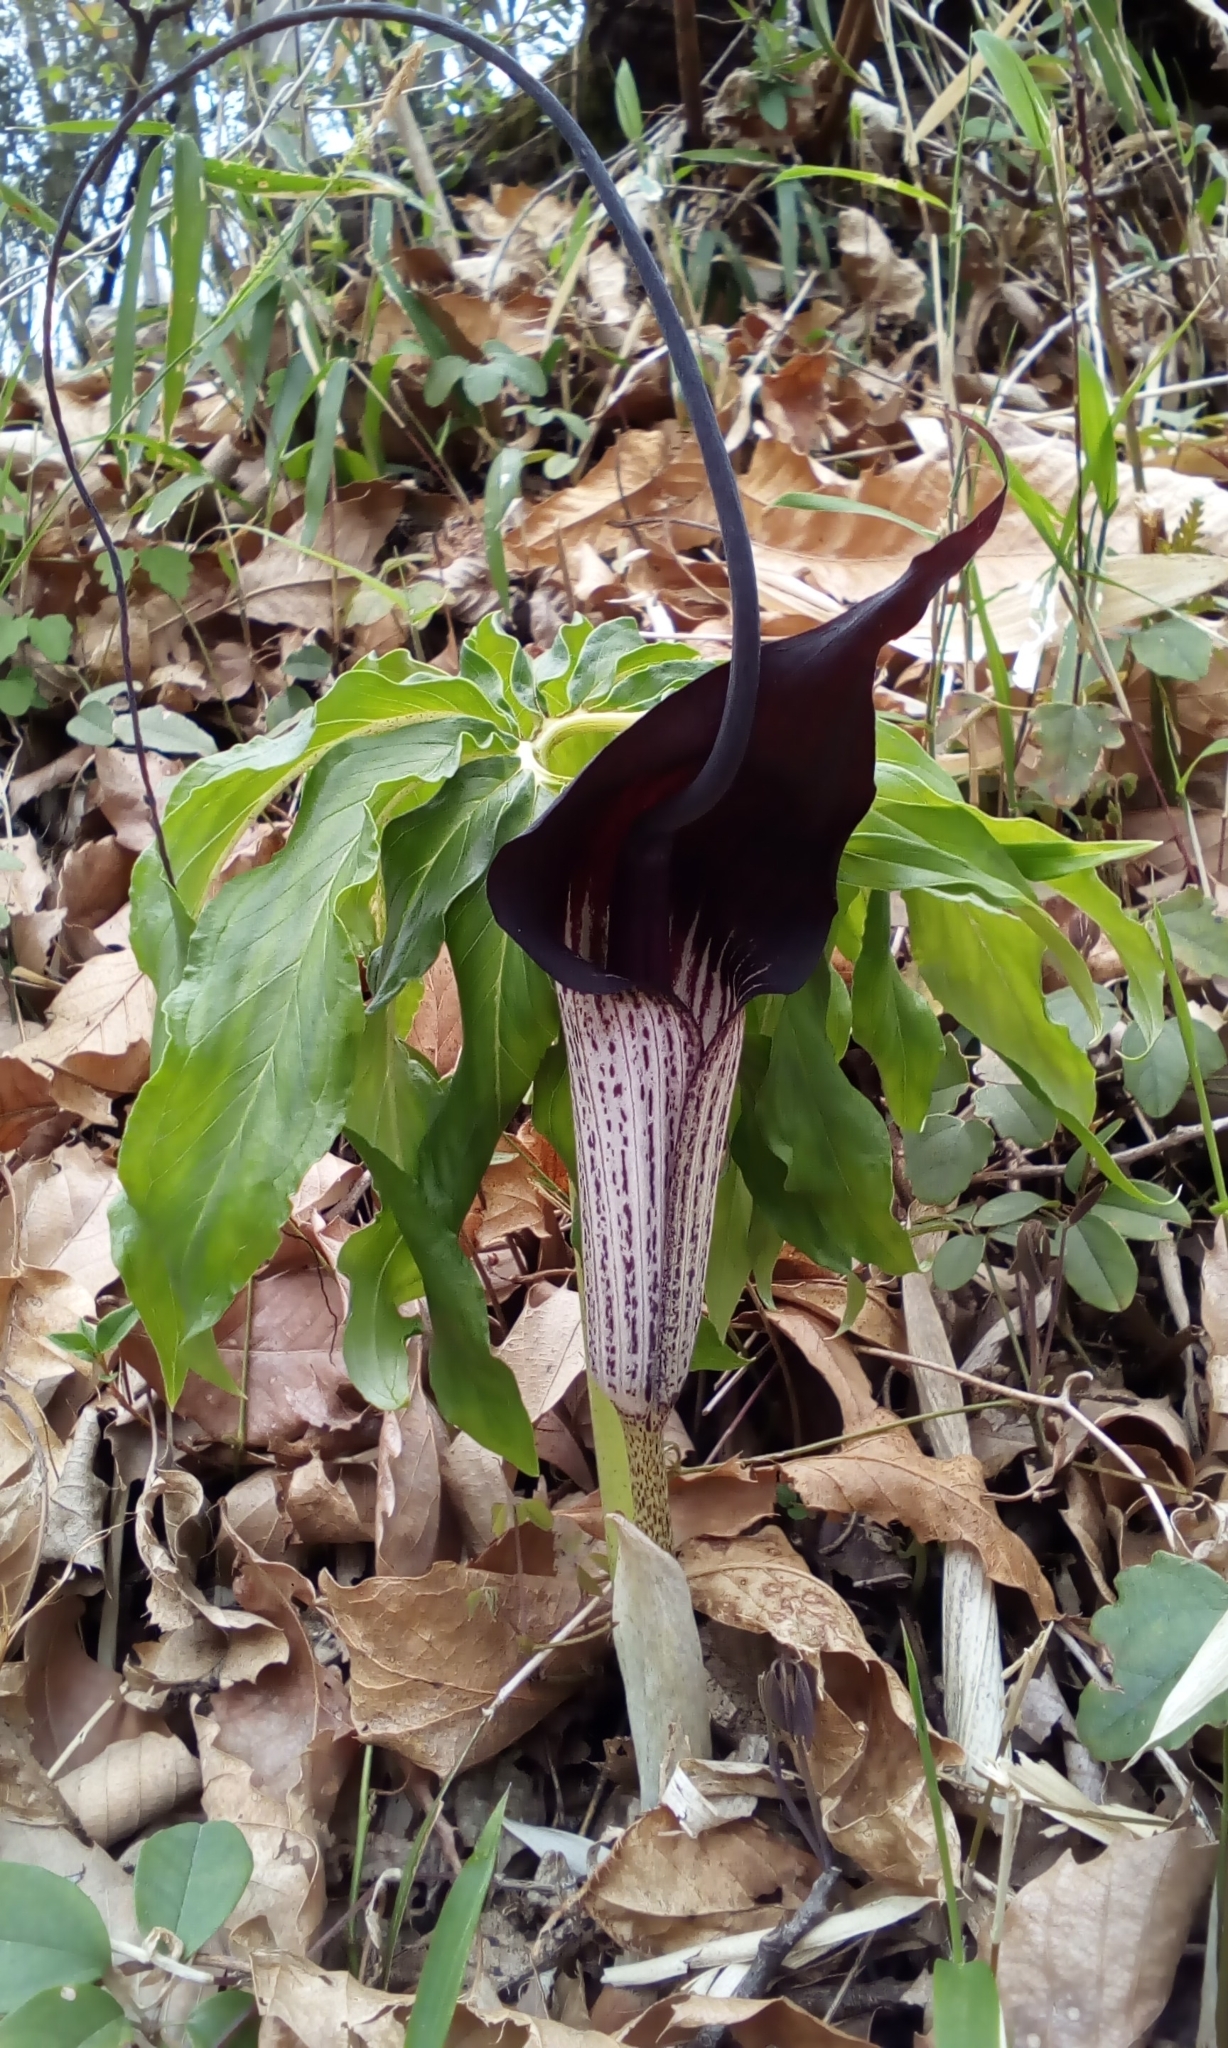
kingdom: Plantae
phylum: Tracheophyta
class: Liliopsida
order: Alismatales
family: Araceae
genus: Arisaema
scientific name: Arisaema thunbergii
